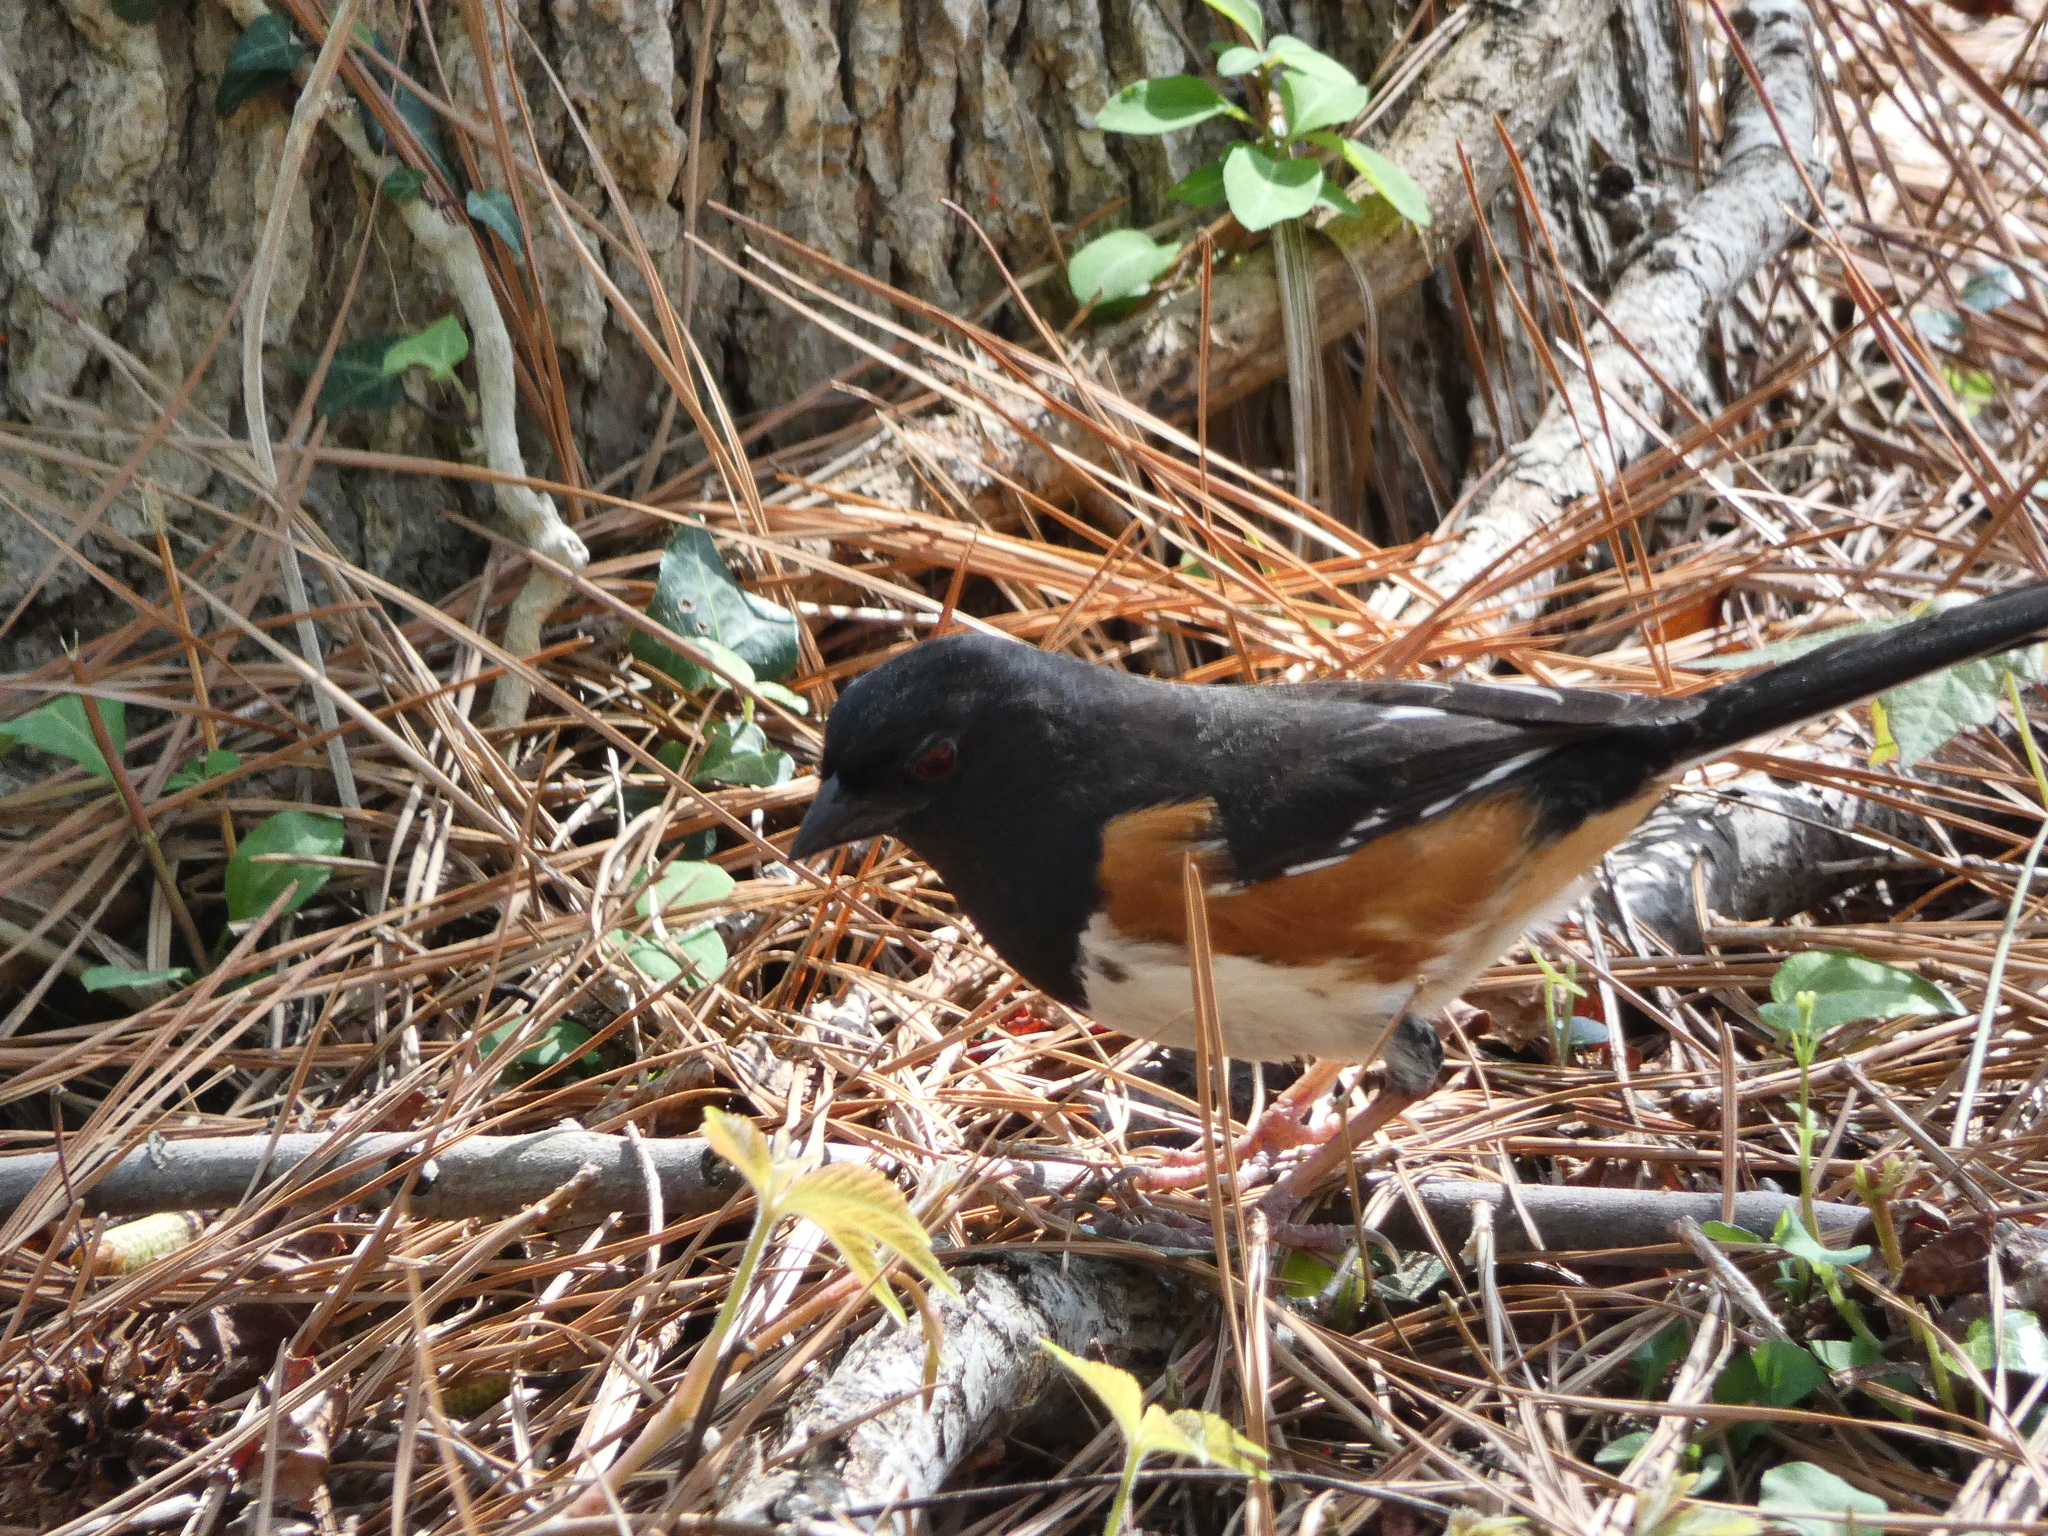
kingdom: Animalia
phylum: Chordata
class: Aves
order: Passeriformes
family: Passerellidae
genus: Pipilo
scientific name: Pipilo erythrophthalmus
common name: Eastern towhee
